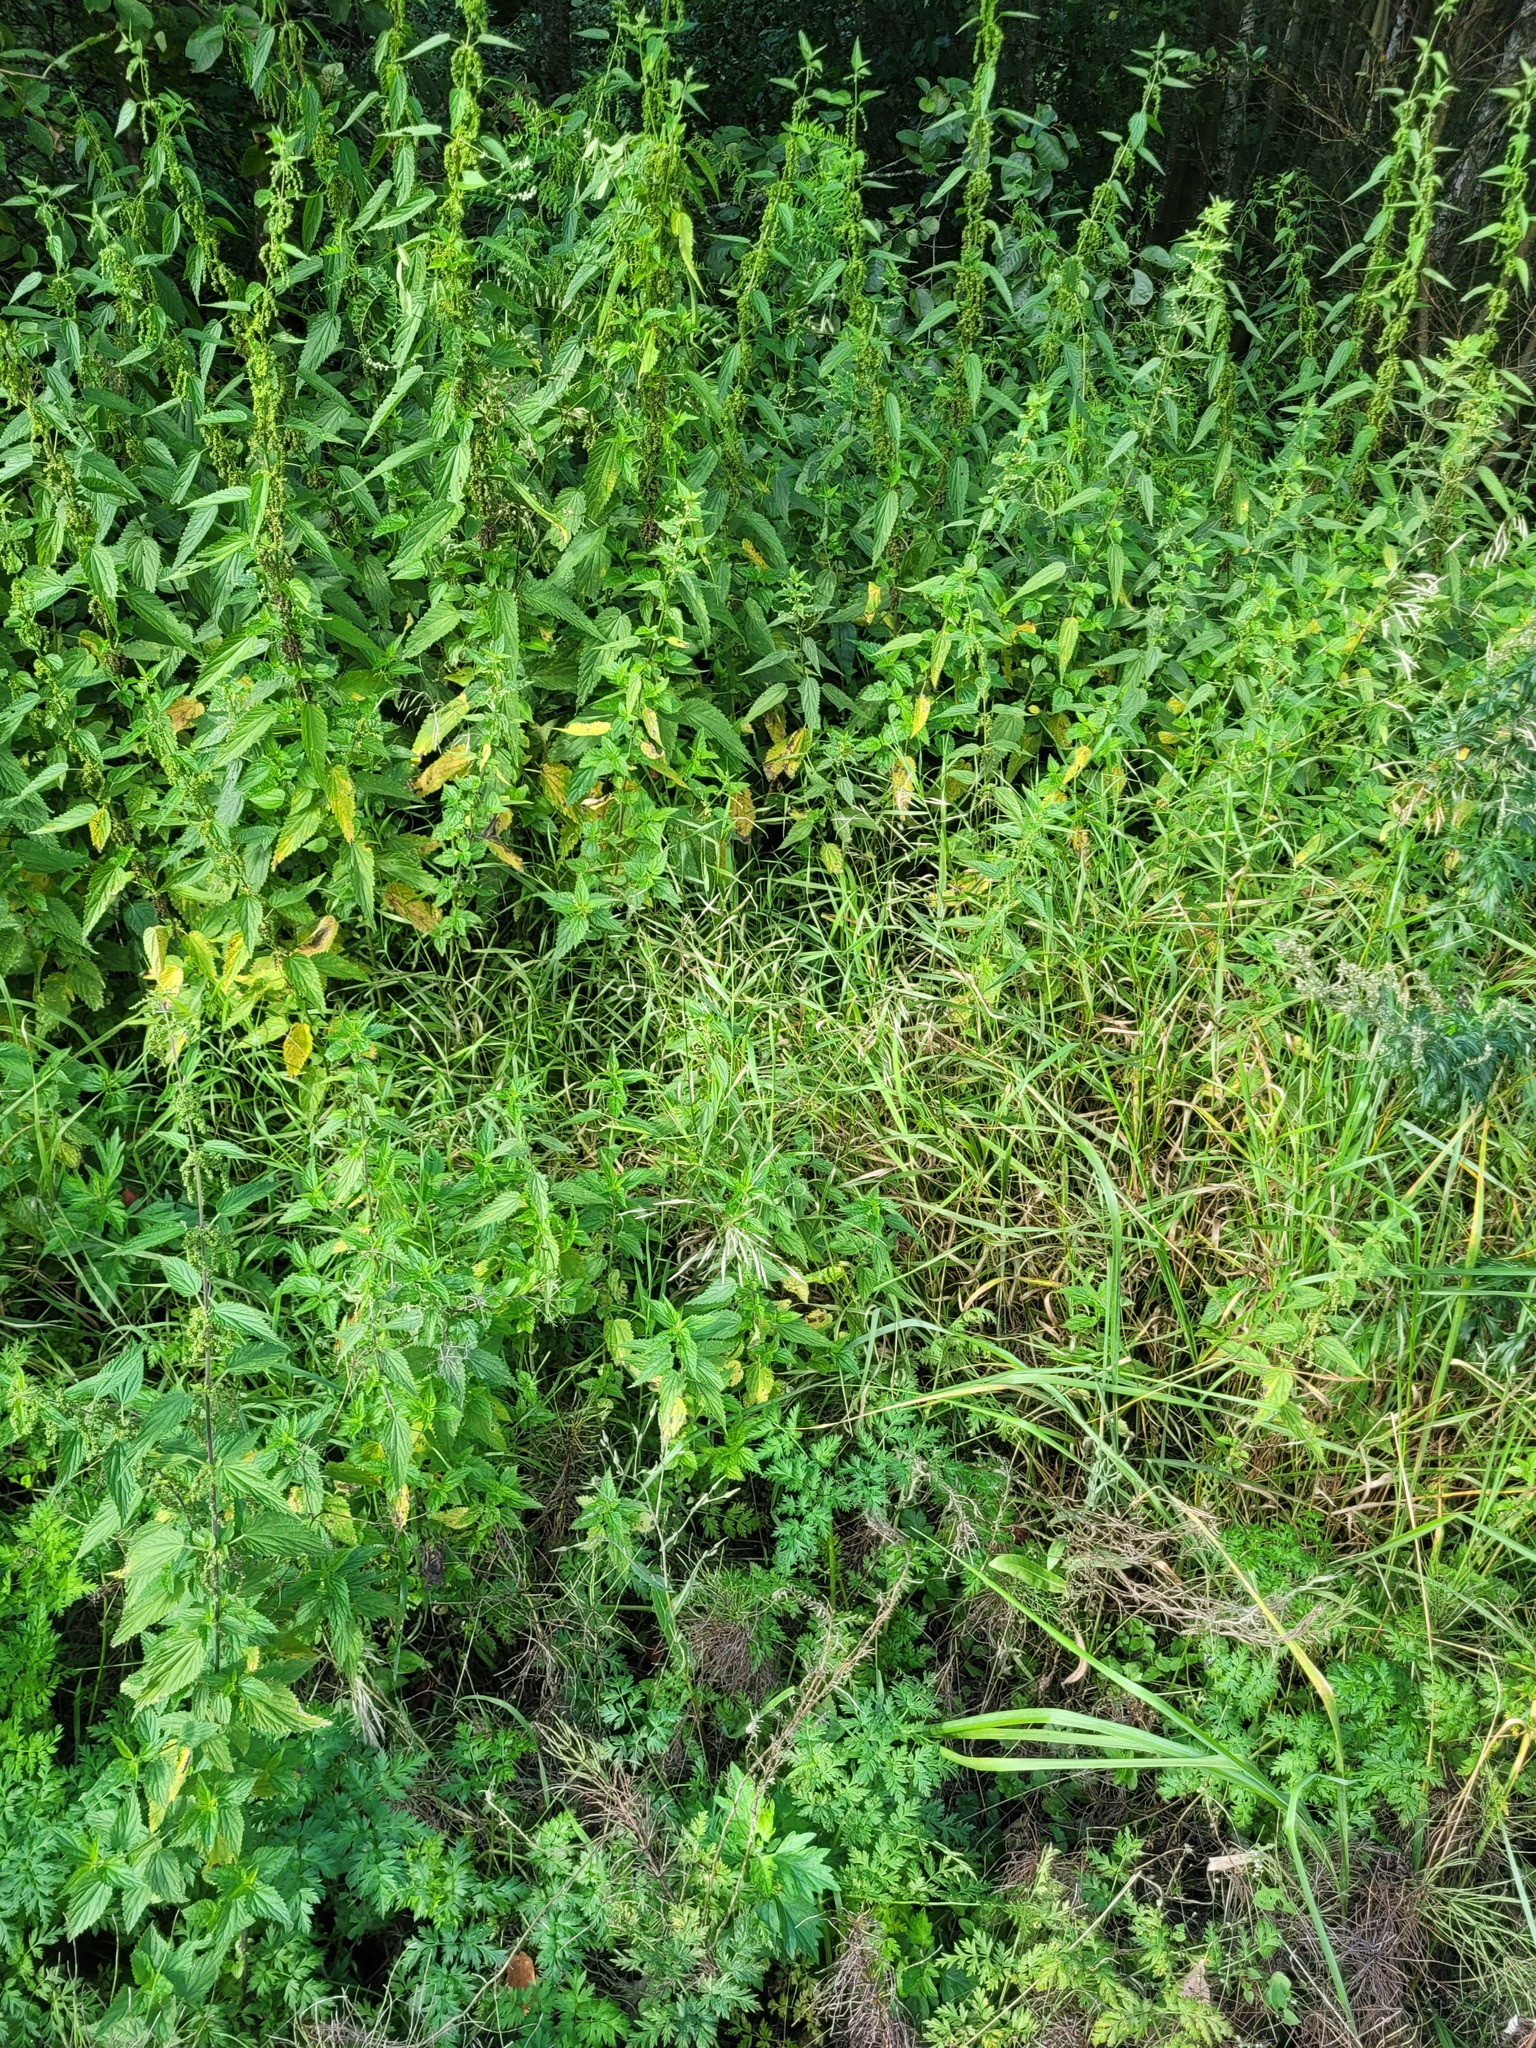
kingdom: Plantae
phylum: Tracheophyta
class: Liliopsida
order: Poales
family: Poaceae
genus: Bromus
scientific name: Bromus inermis
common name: Smooth brome
